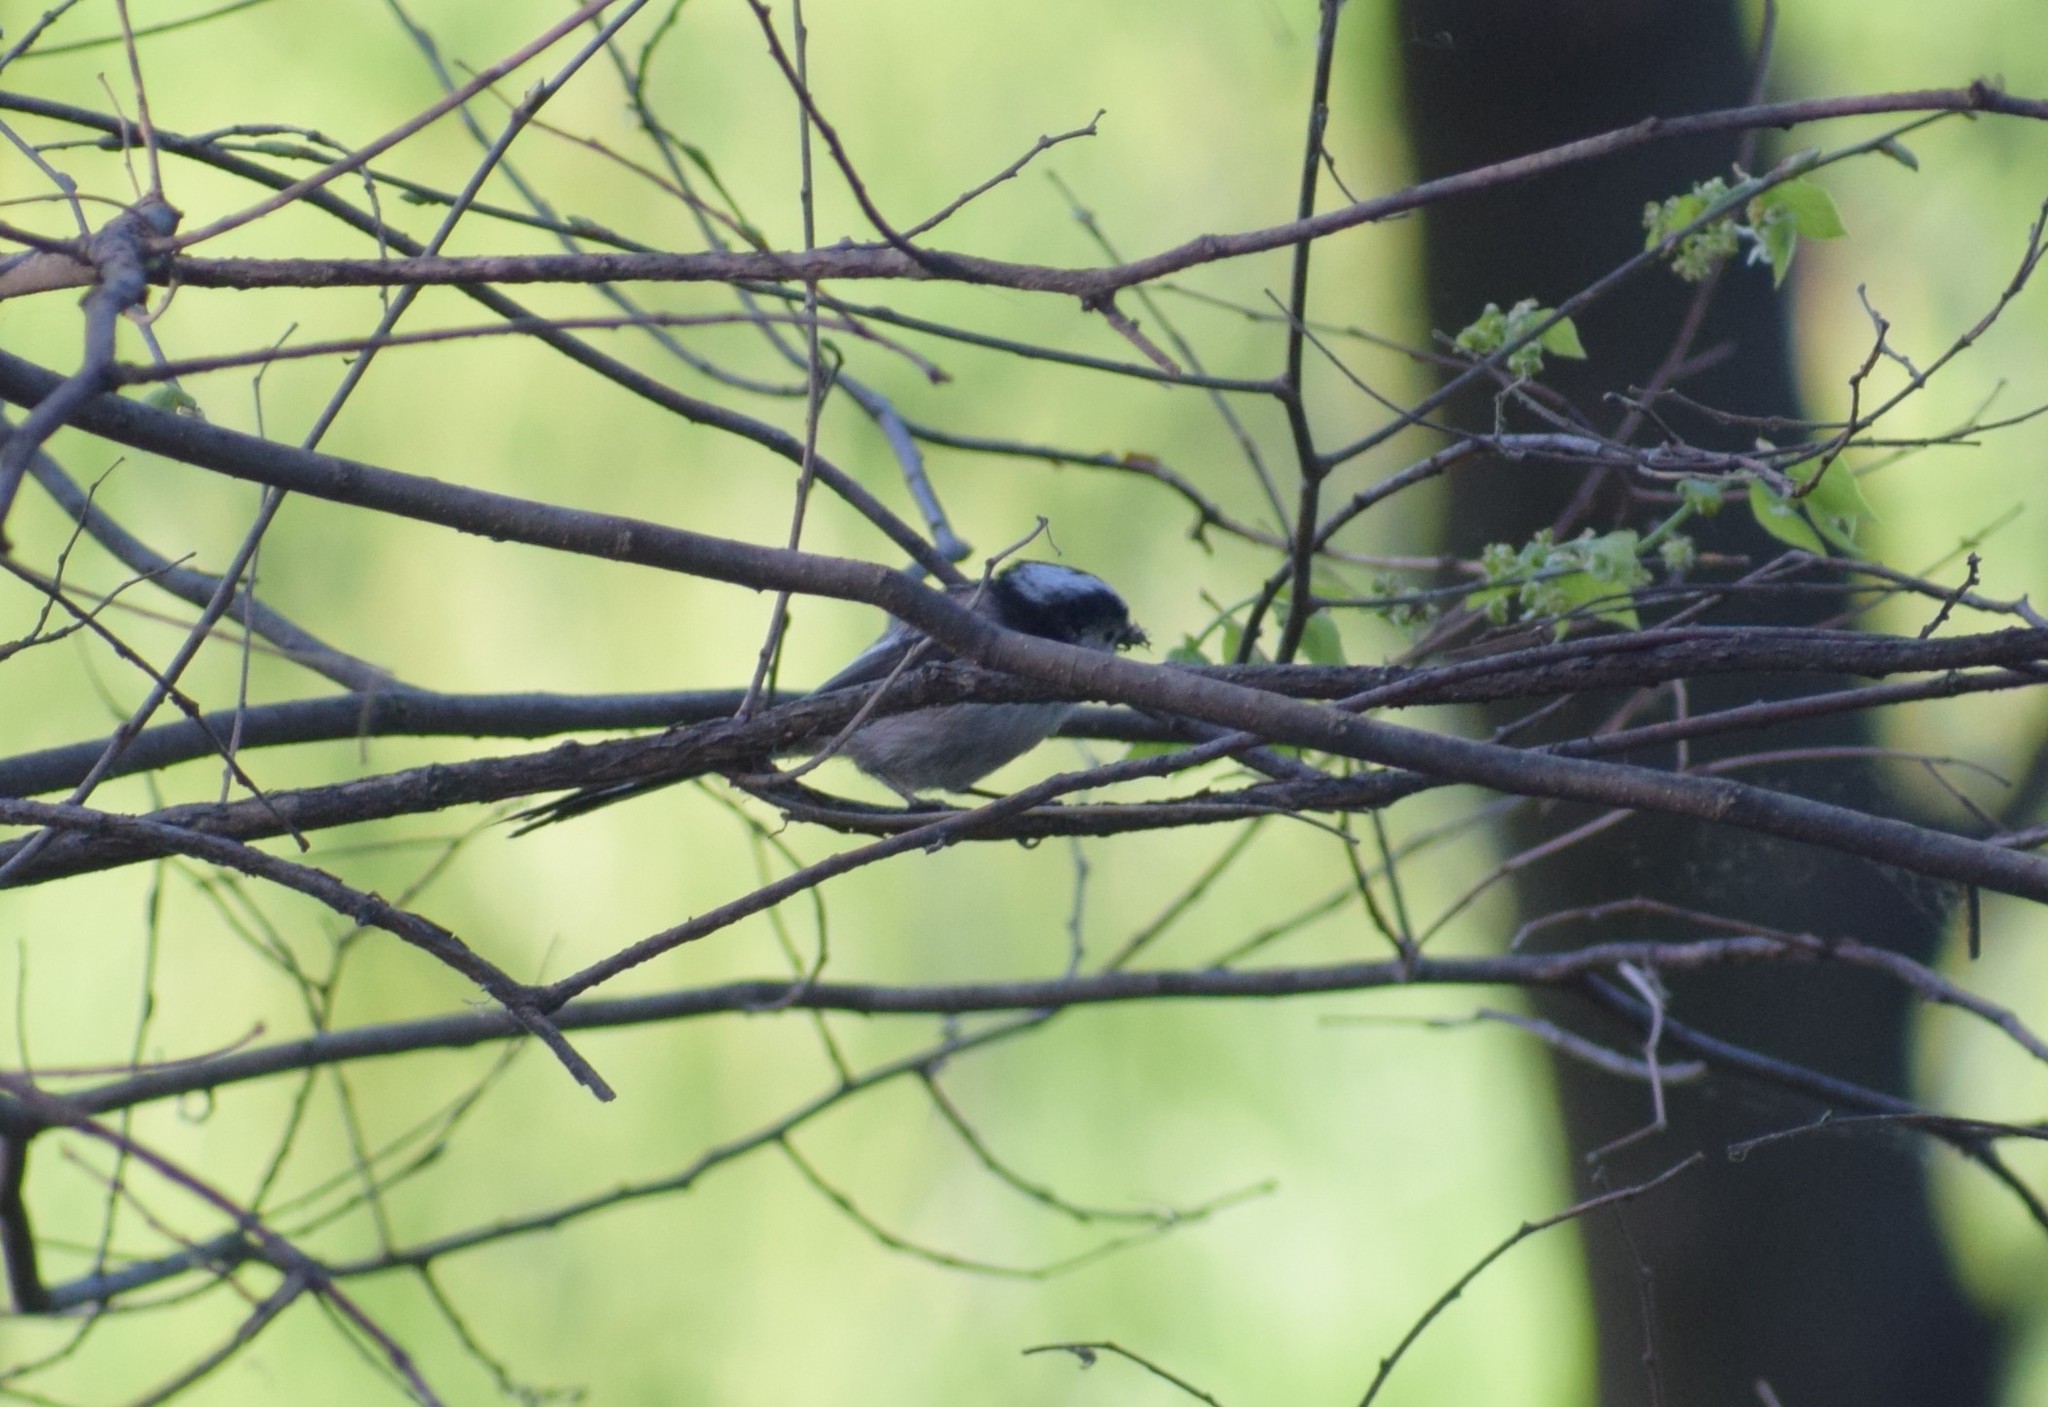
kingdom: Animalia
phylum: Chordata
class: Aves
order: Passeriformes
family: Aegithalidae
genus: Aegithalos
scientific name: Aegithalos caudatus
